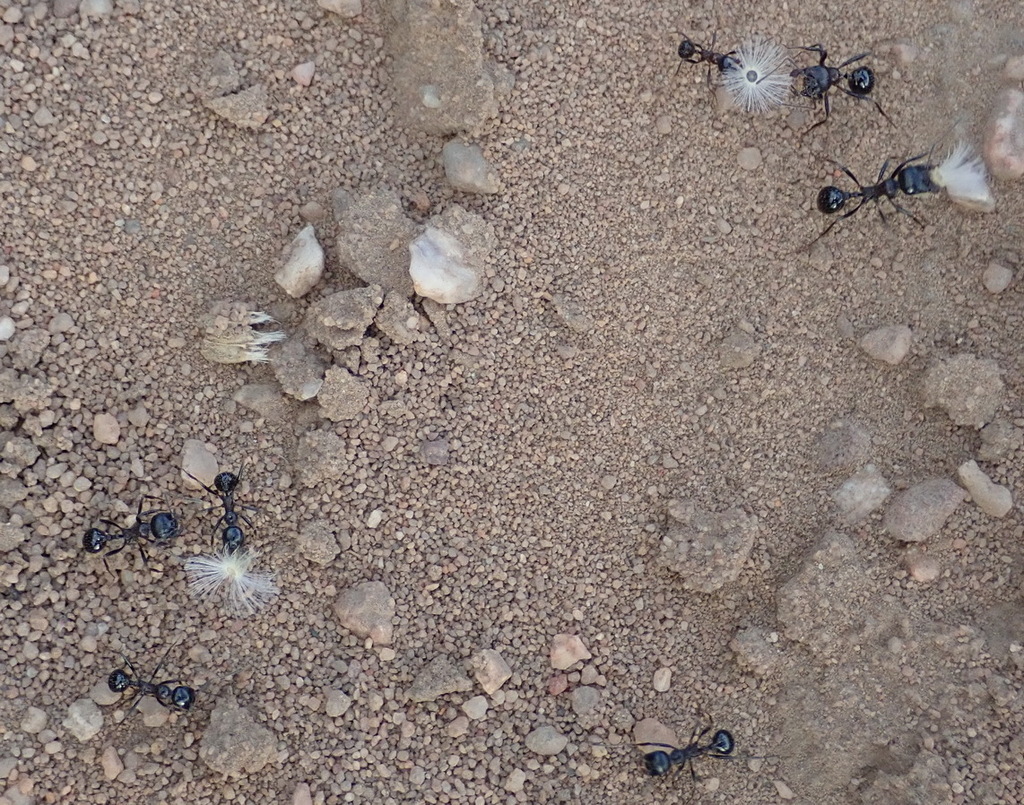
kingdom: Animalia
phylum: Arthropoda
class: Insecta
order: Hymenoptera
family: Formicidae
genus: Messor
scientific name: Messor capensis
